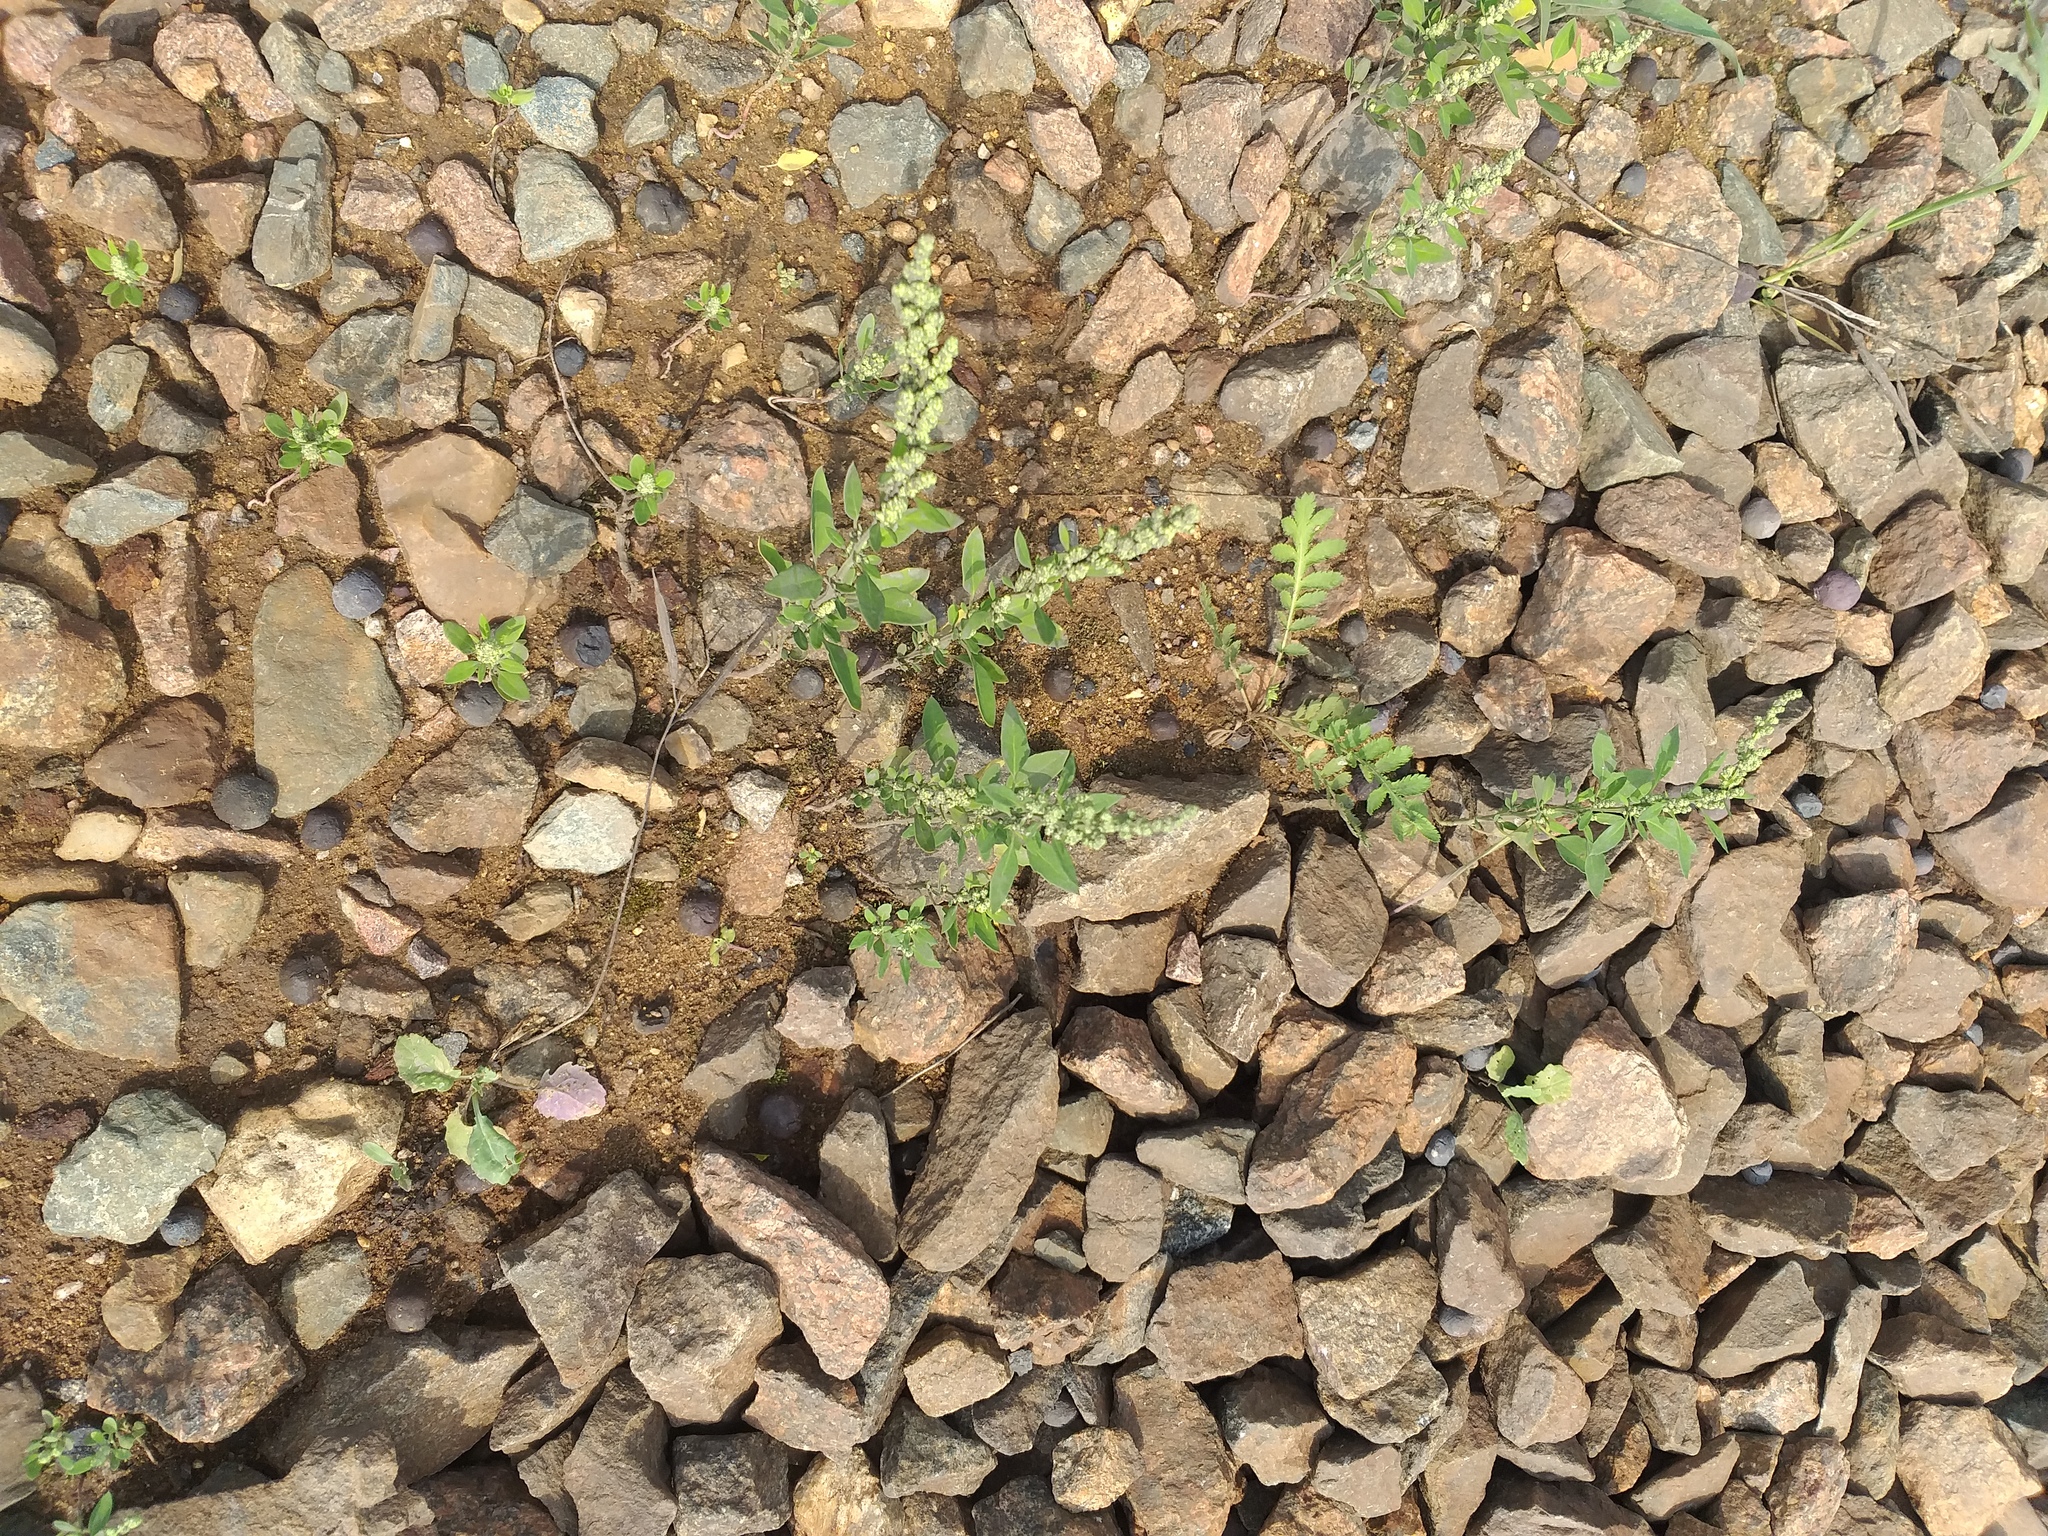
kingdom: Plantae
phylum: Tracheophyta
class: Magnoliopsida
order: Caryophyllales
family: Amaranthaceae
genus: Chenopodium
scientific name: Chenopodium album
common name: Fat-hen
